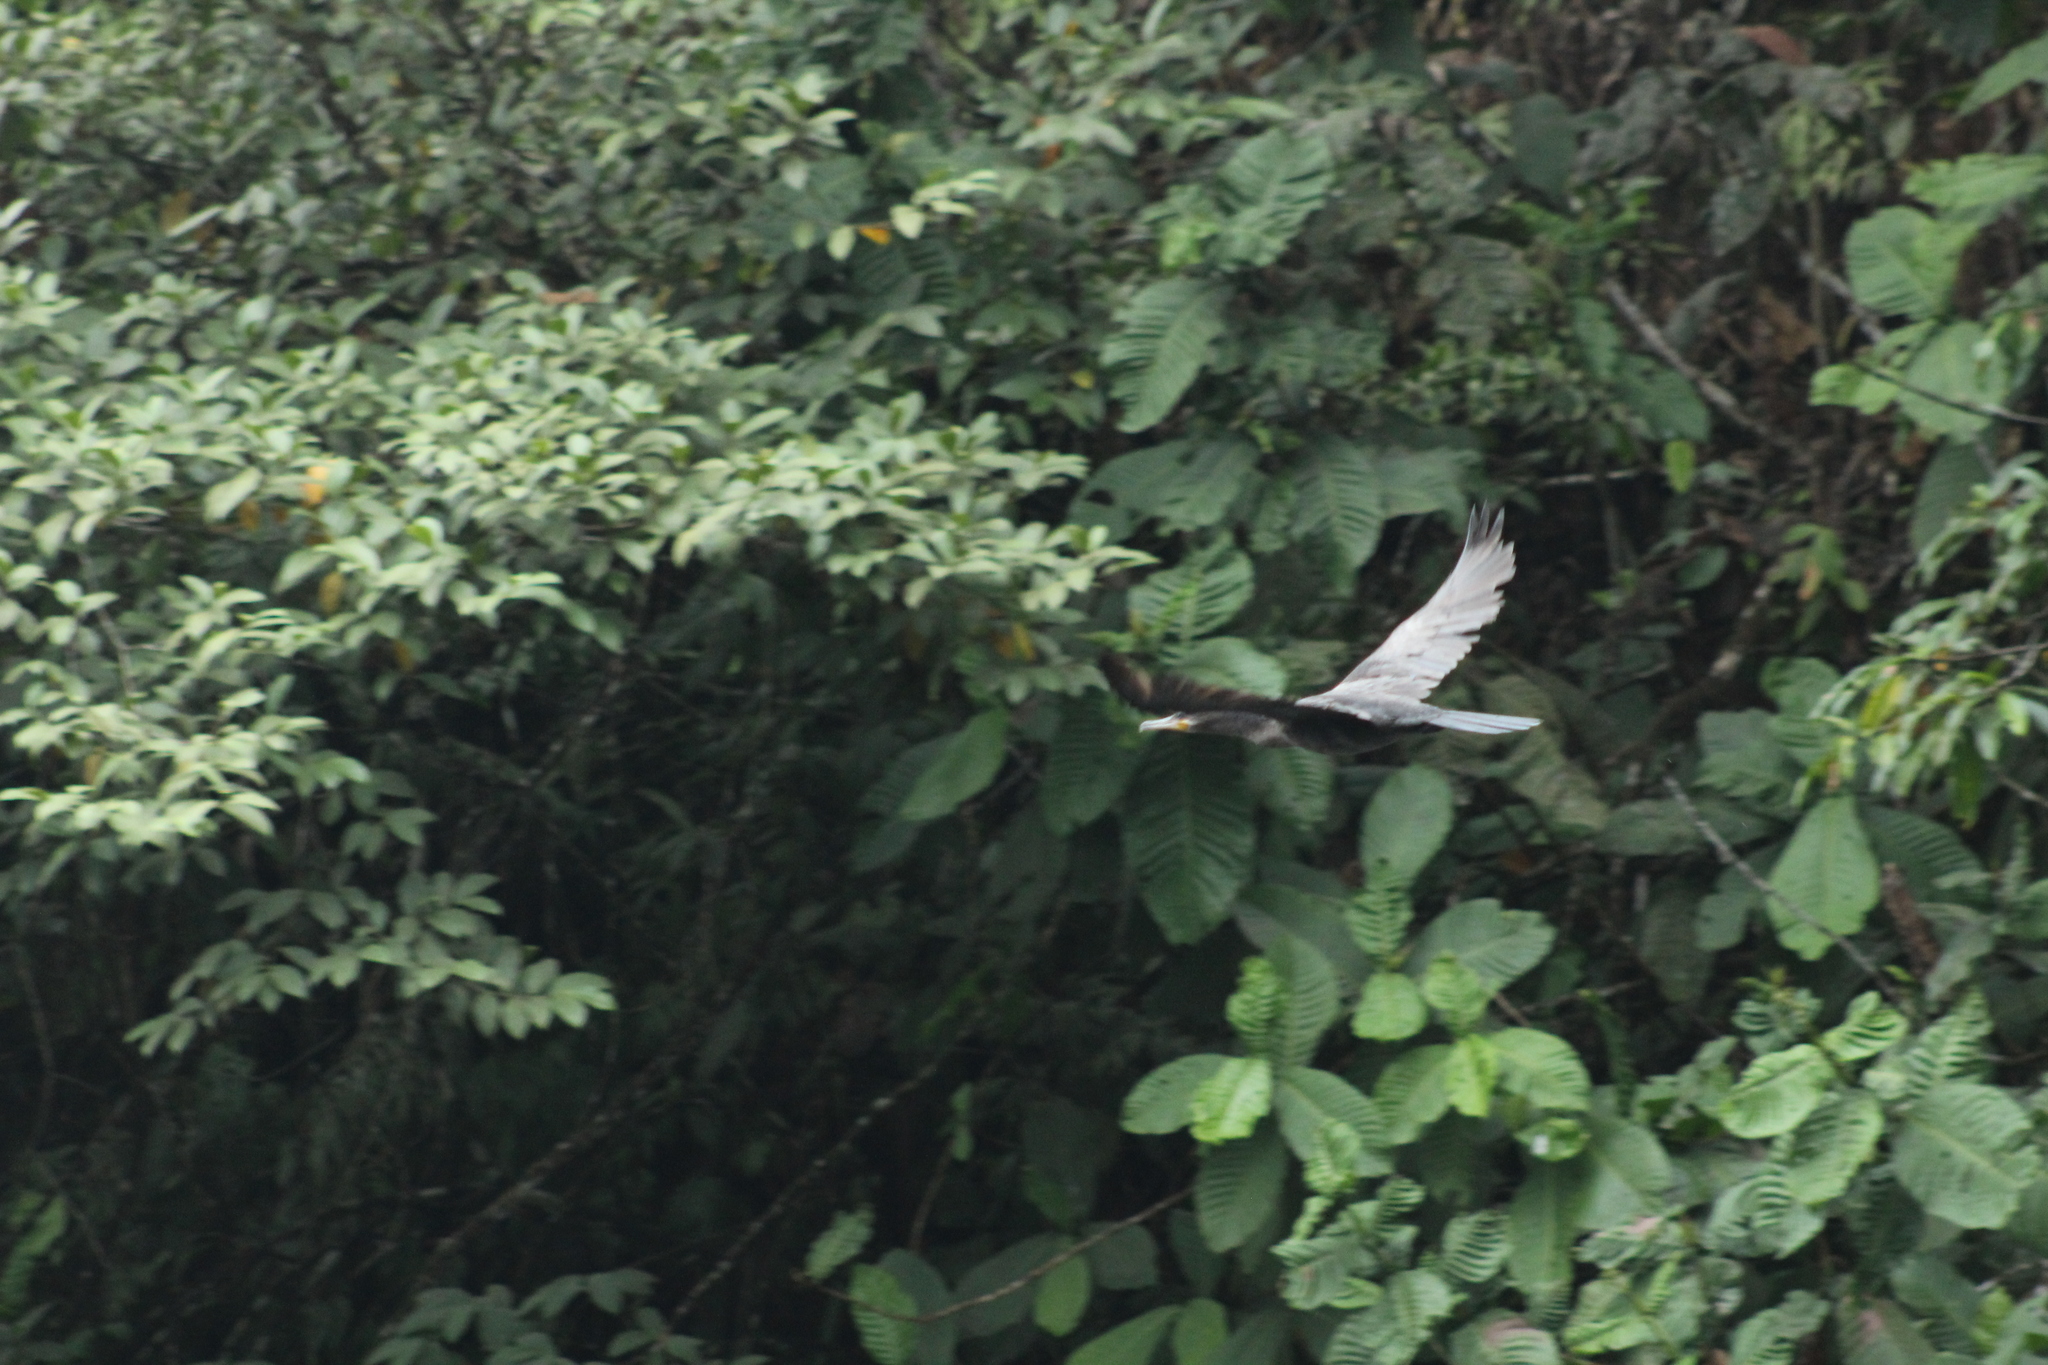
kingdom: Animalia
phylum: Chordata
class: Aves
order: Suliformes
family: Phalacrocoracidae
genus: Phalacrocorax
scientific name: Phalacrocorax brasilianus
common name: Neotropic cormorant
